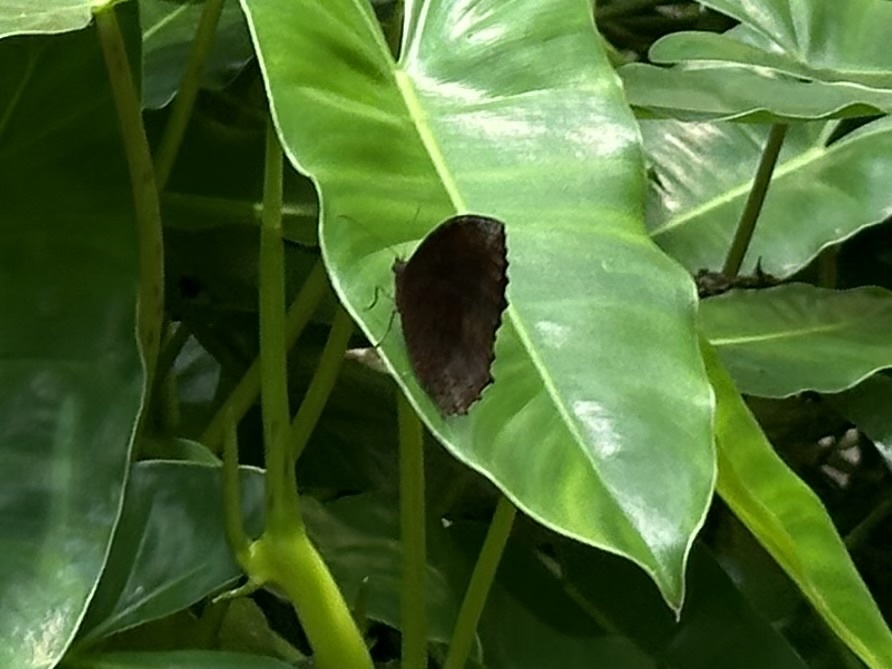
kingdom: Animalia
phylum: Arthropoda
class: Insecta
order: Lepidoptera
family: Nymphalidae
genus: Elymnias
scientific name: Elymnias hypermnestra
